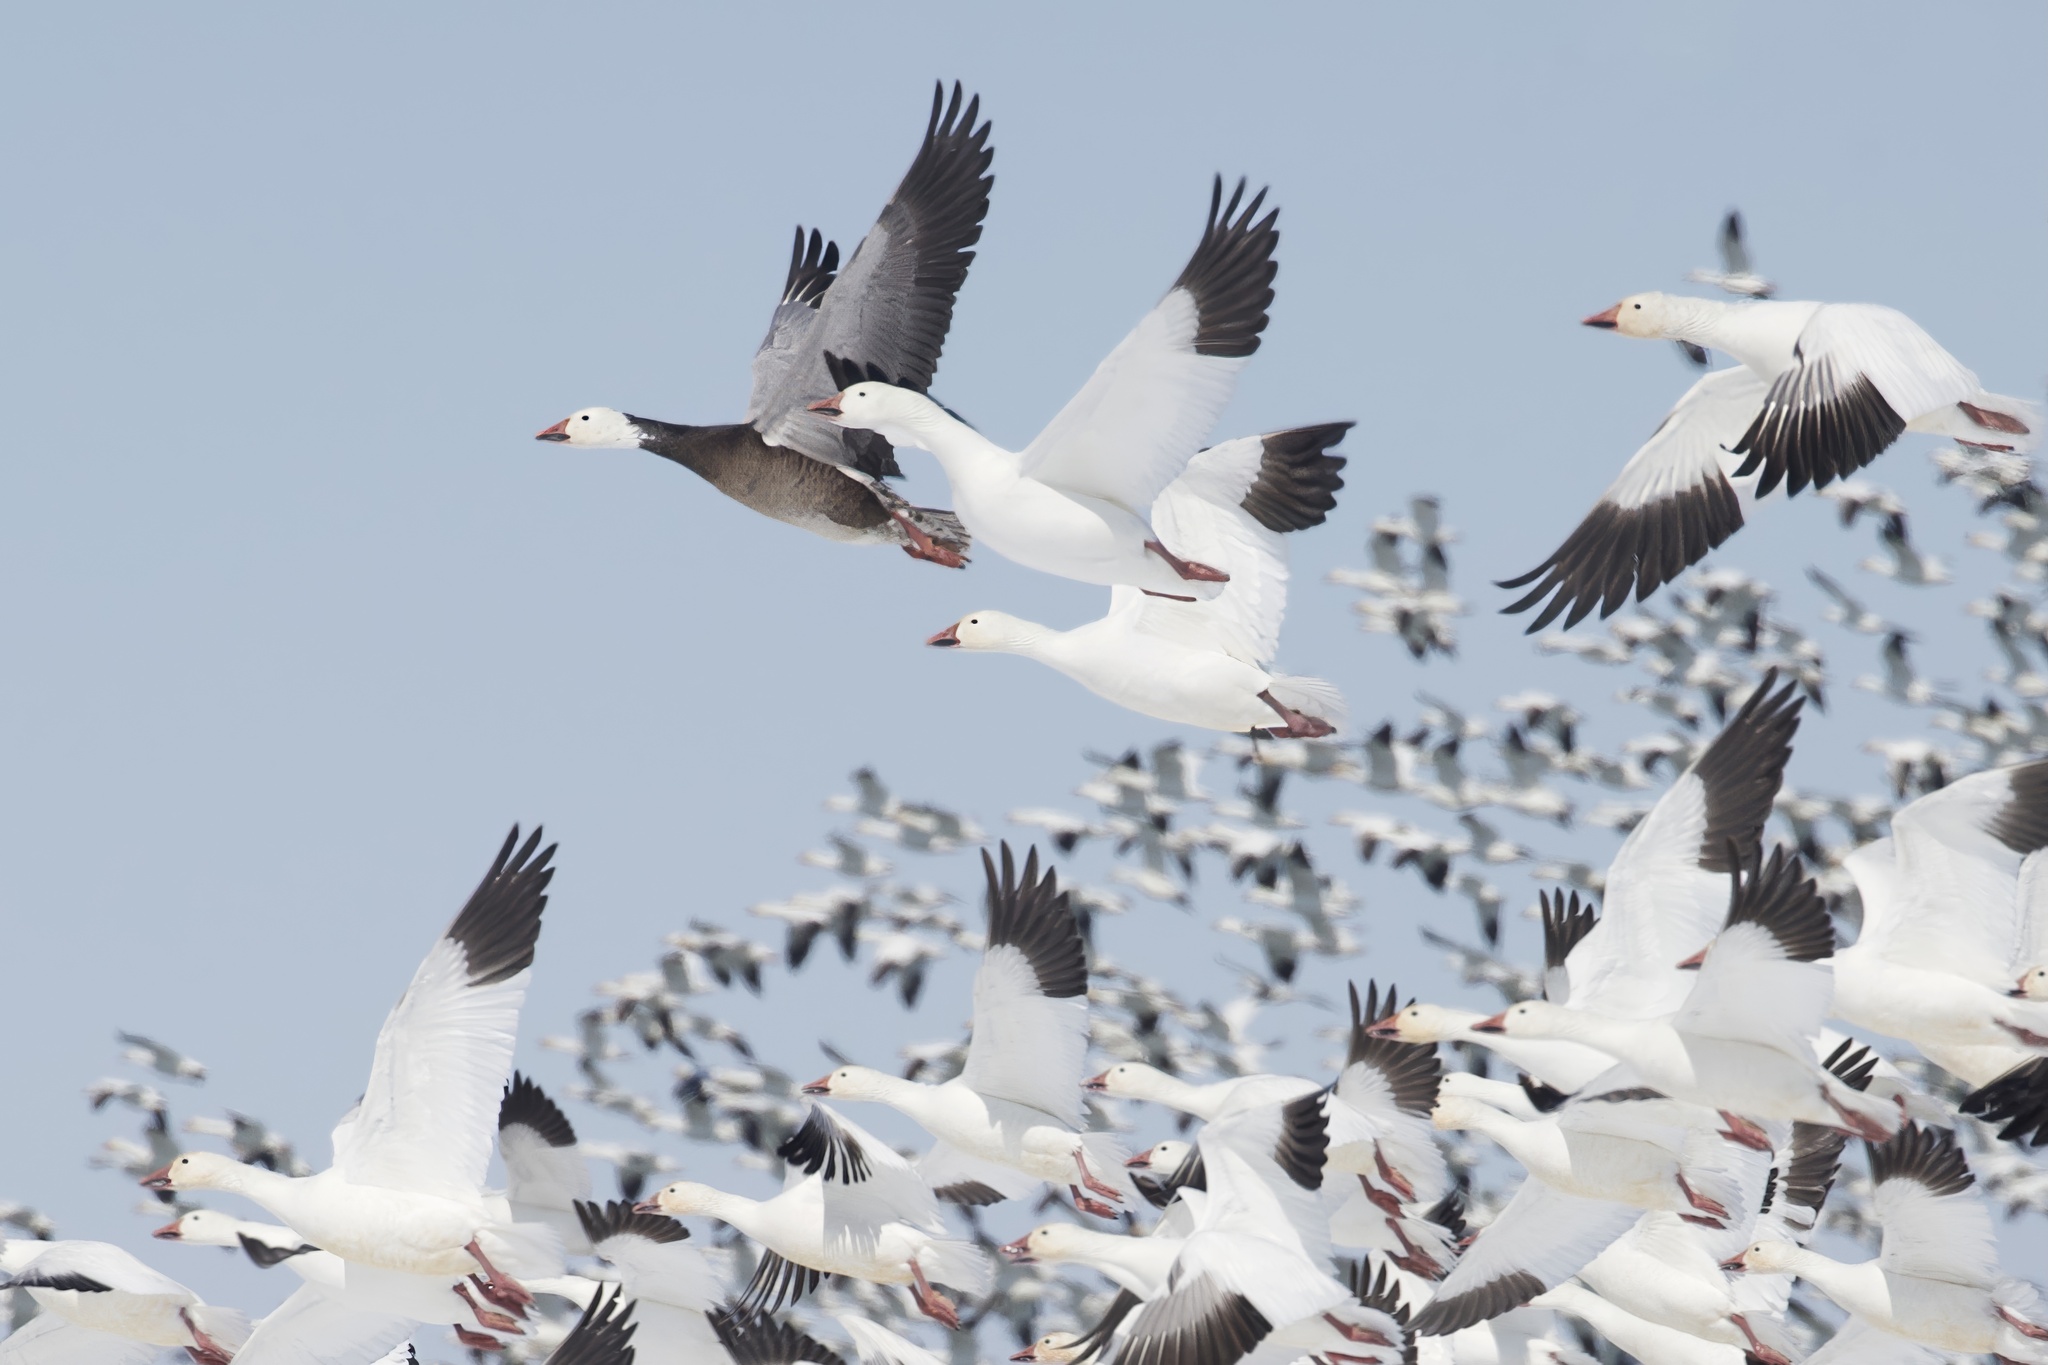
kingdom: Animalia
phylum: Chordata
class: Aves
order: Anseriformes
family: Anatidae
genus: Anser
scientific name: Anser caerulescens
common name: Snow goose
